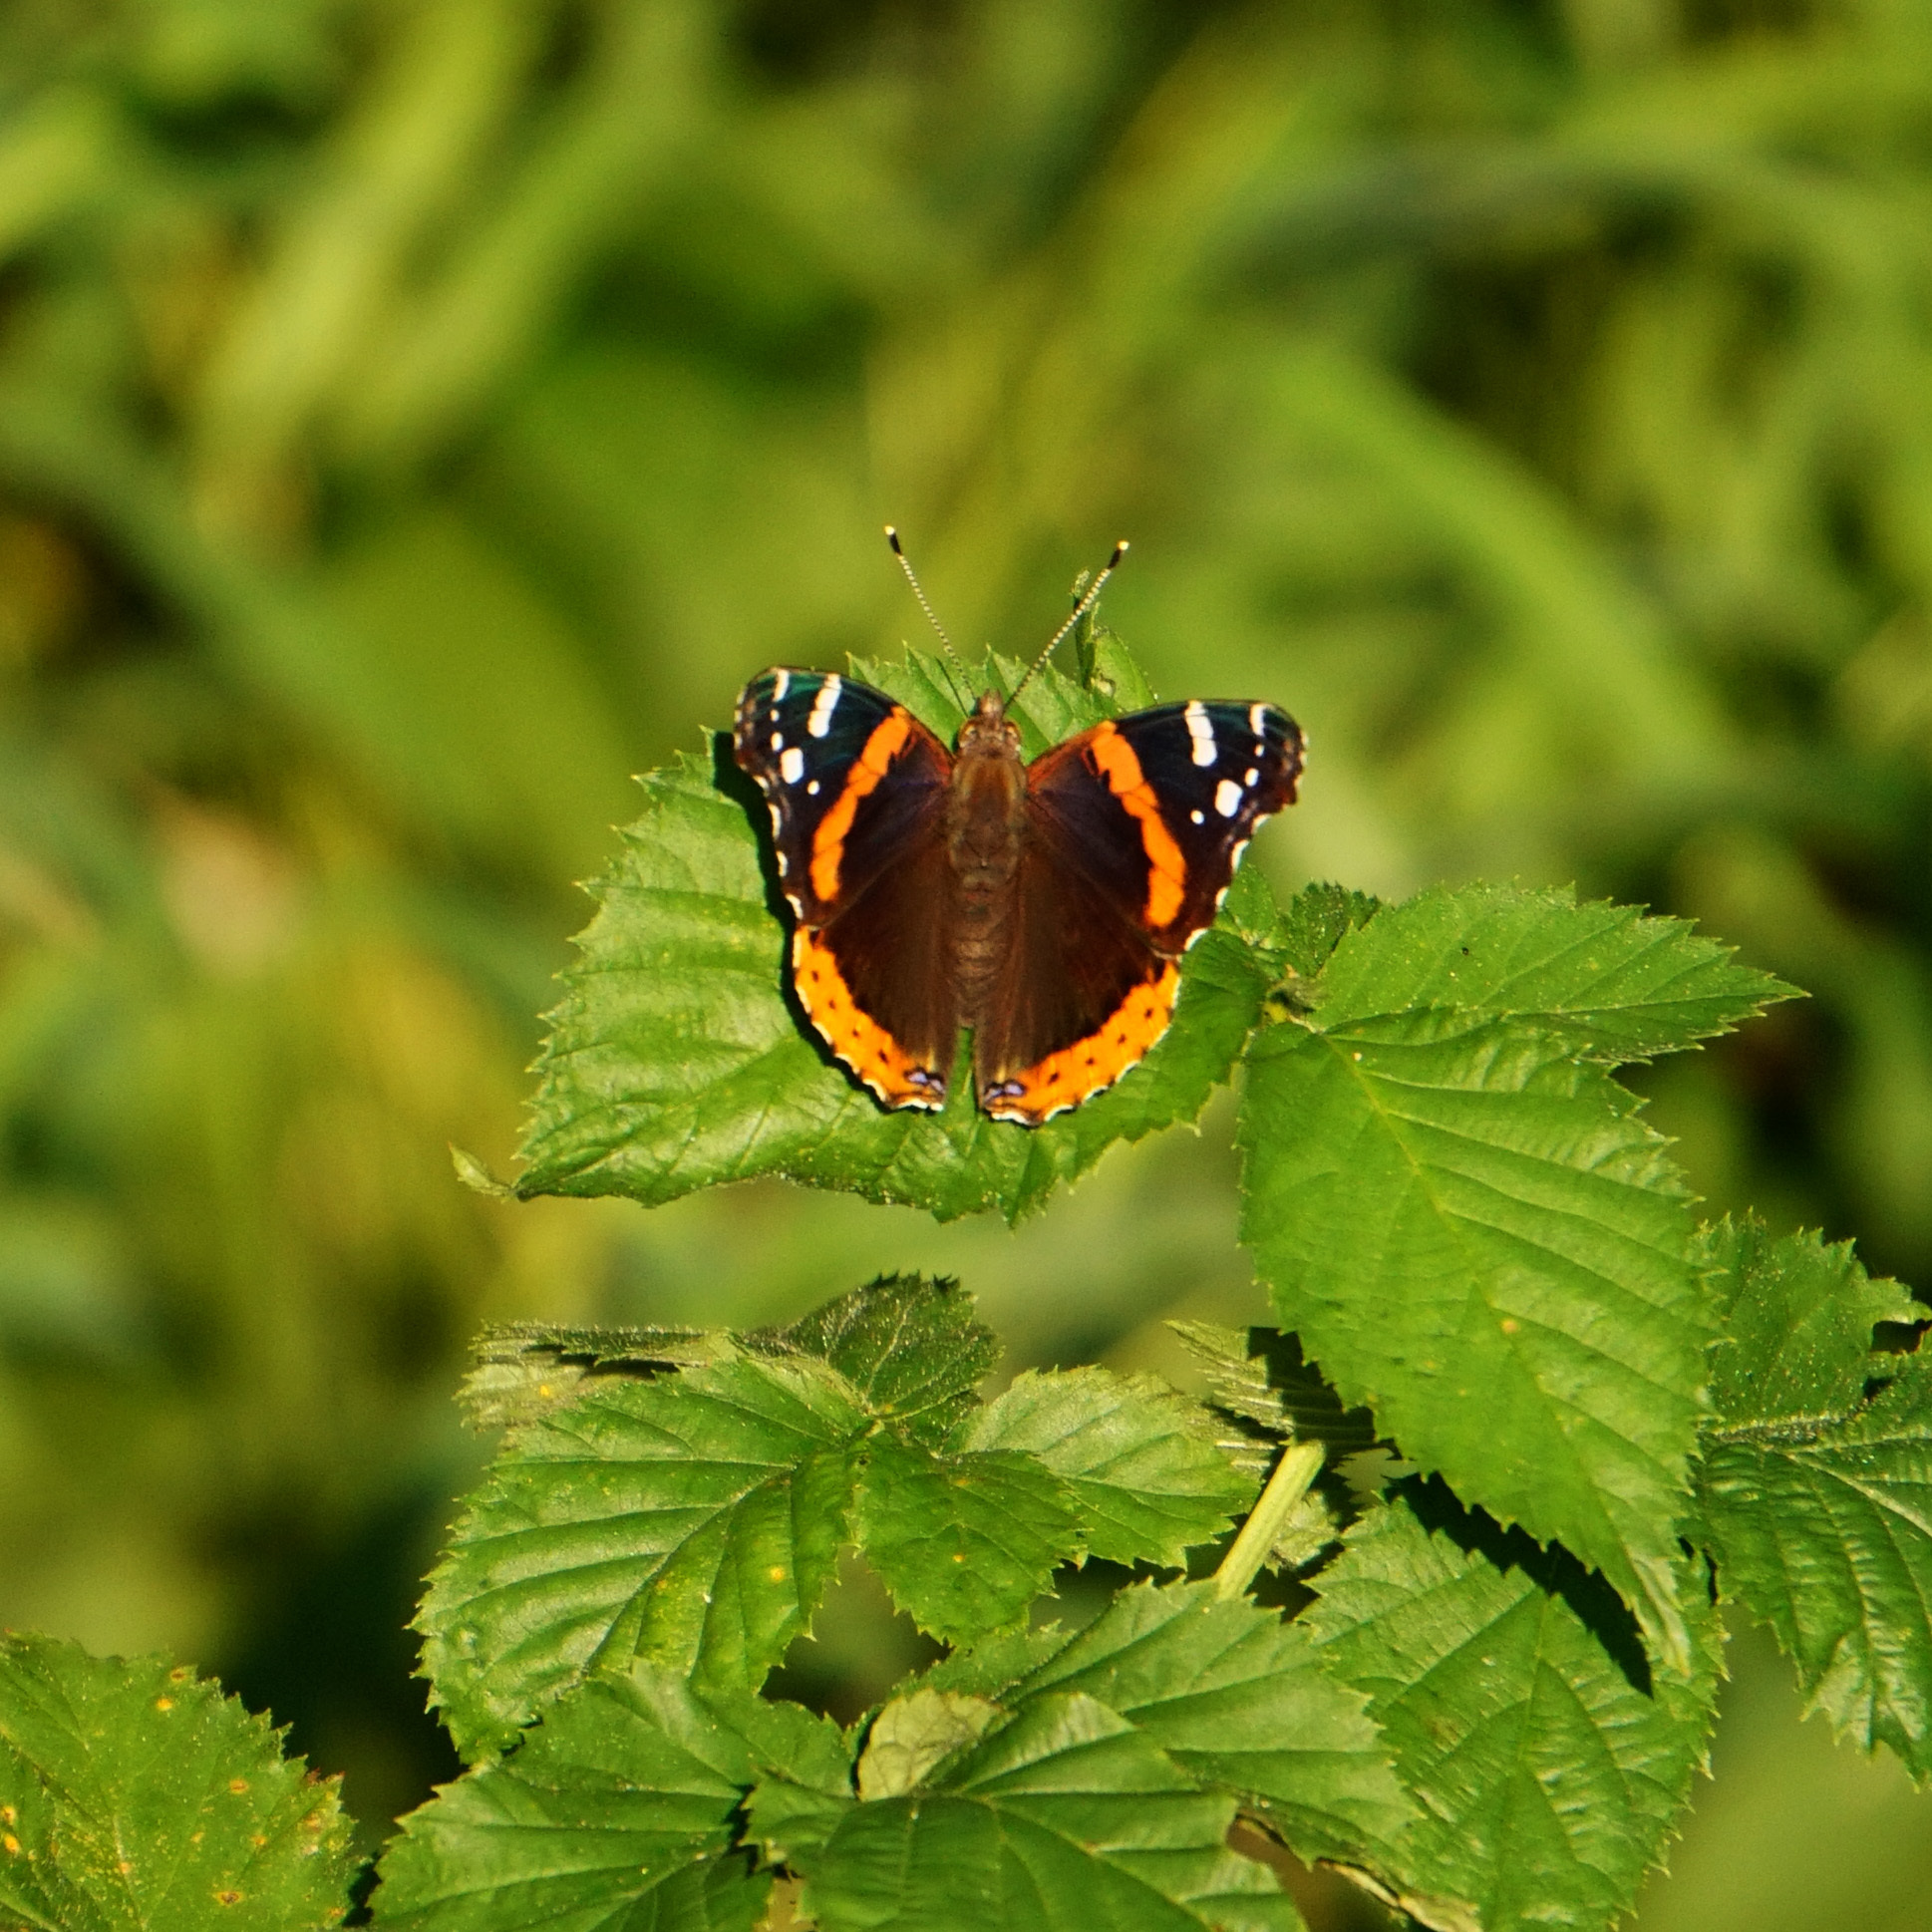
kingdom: Animalia
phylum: Arthropoda
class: Insecta
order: Lepidoptera
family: Nymphalidae
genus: Vanessa
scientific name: Vanessa atalanta
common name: Red admiral
